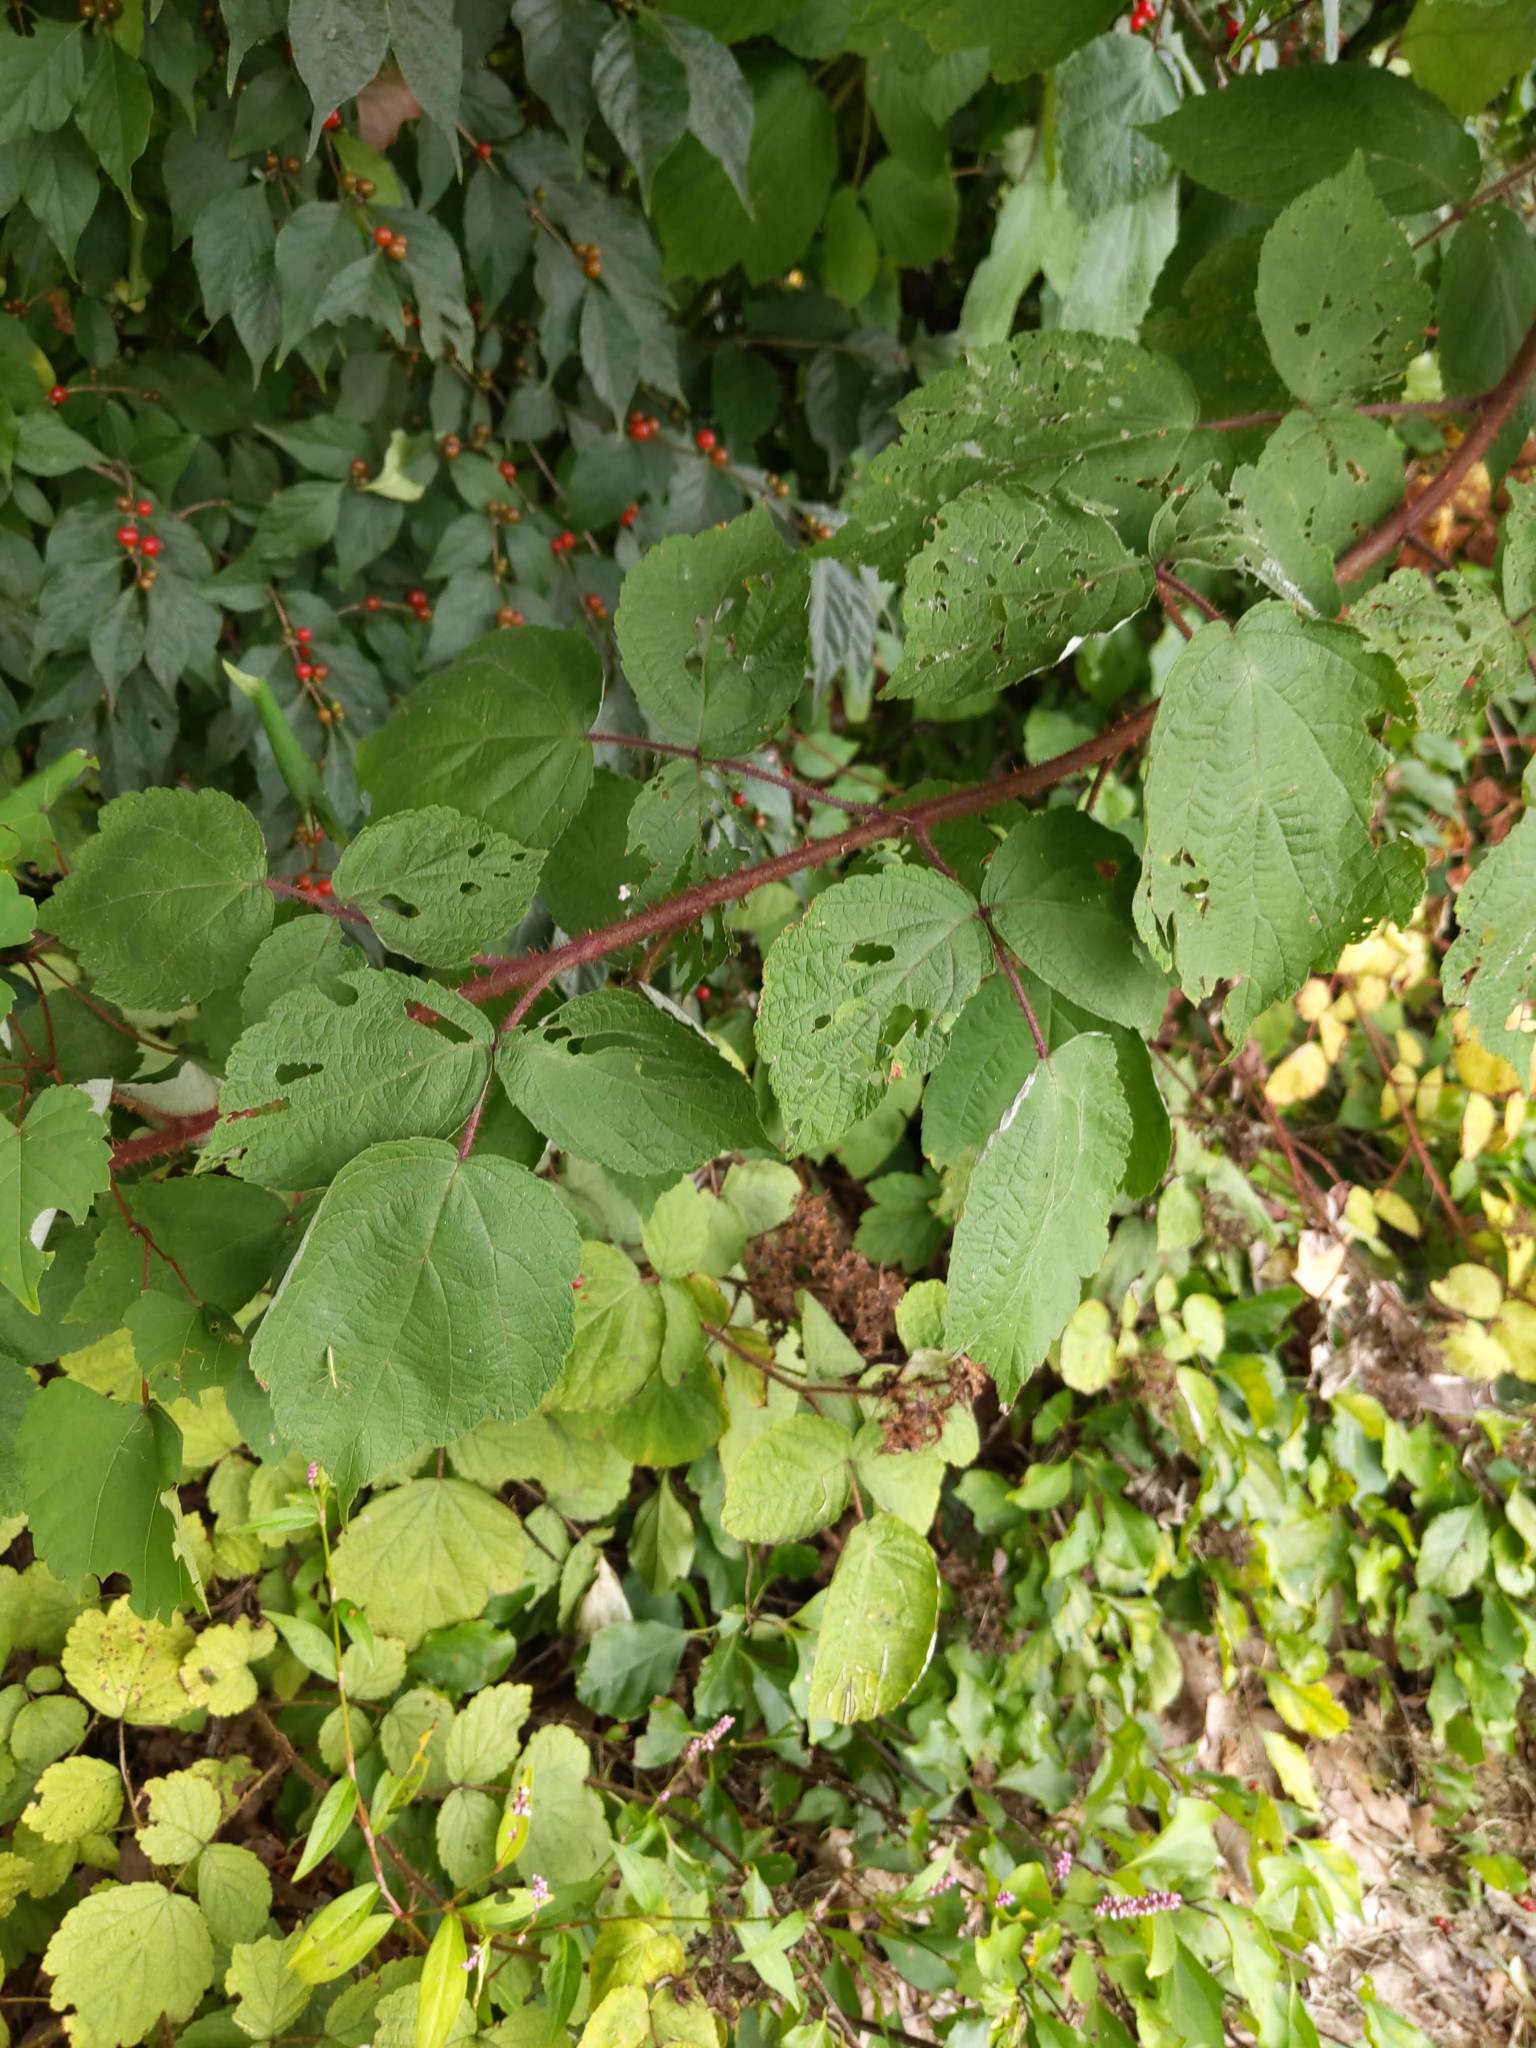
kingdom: Plantae
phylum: Tracheophyta
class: Magnoliopsida
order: Rosales
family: Rosaceae
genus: Rubus
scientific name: Rubus phoenicolasius
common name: Japanese wineberry
